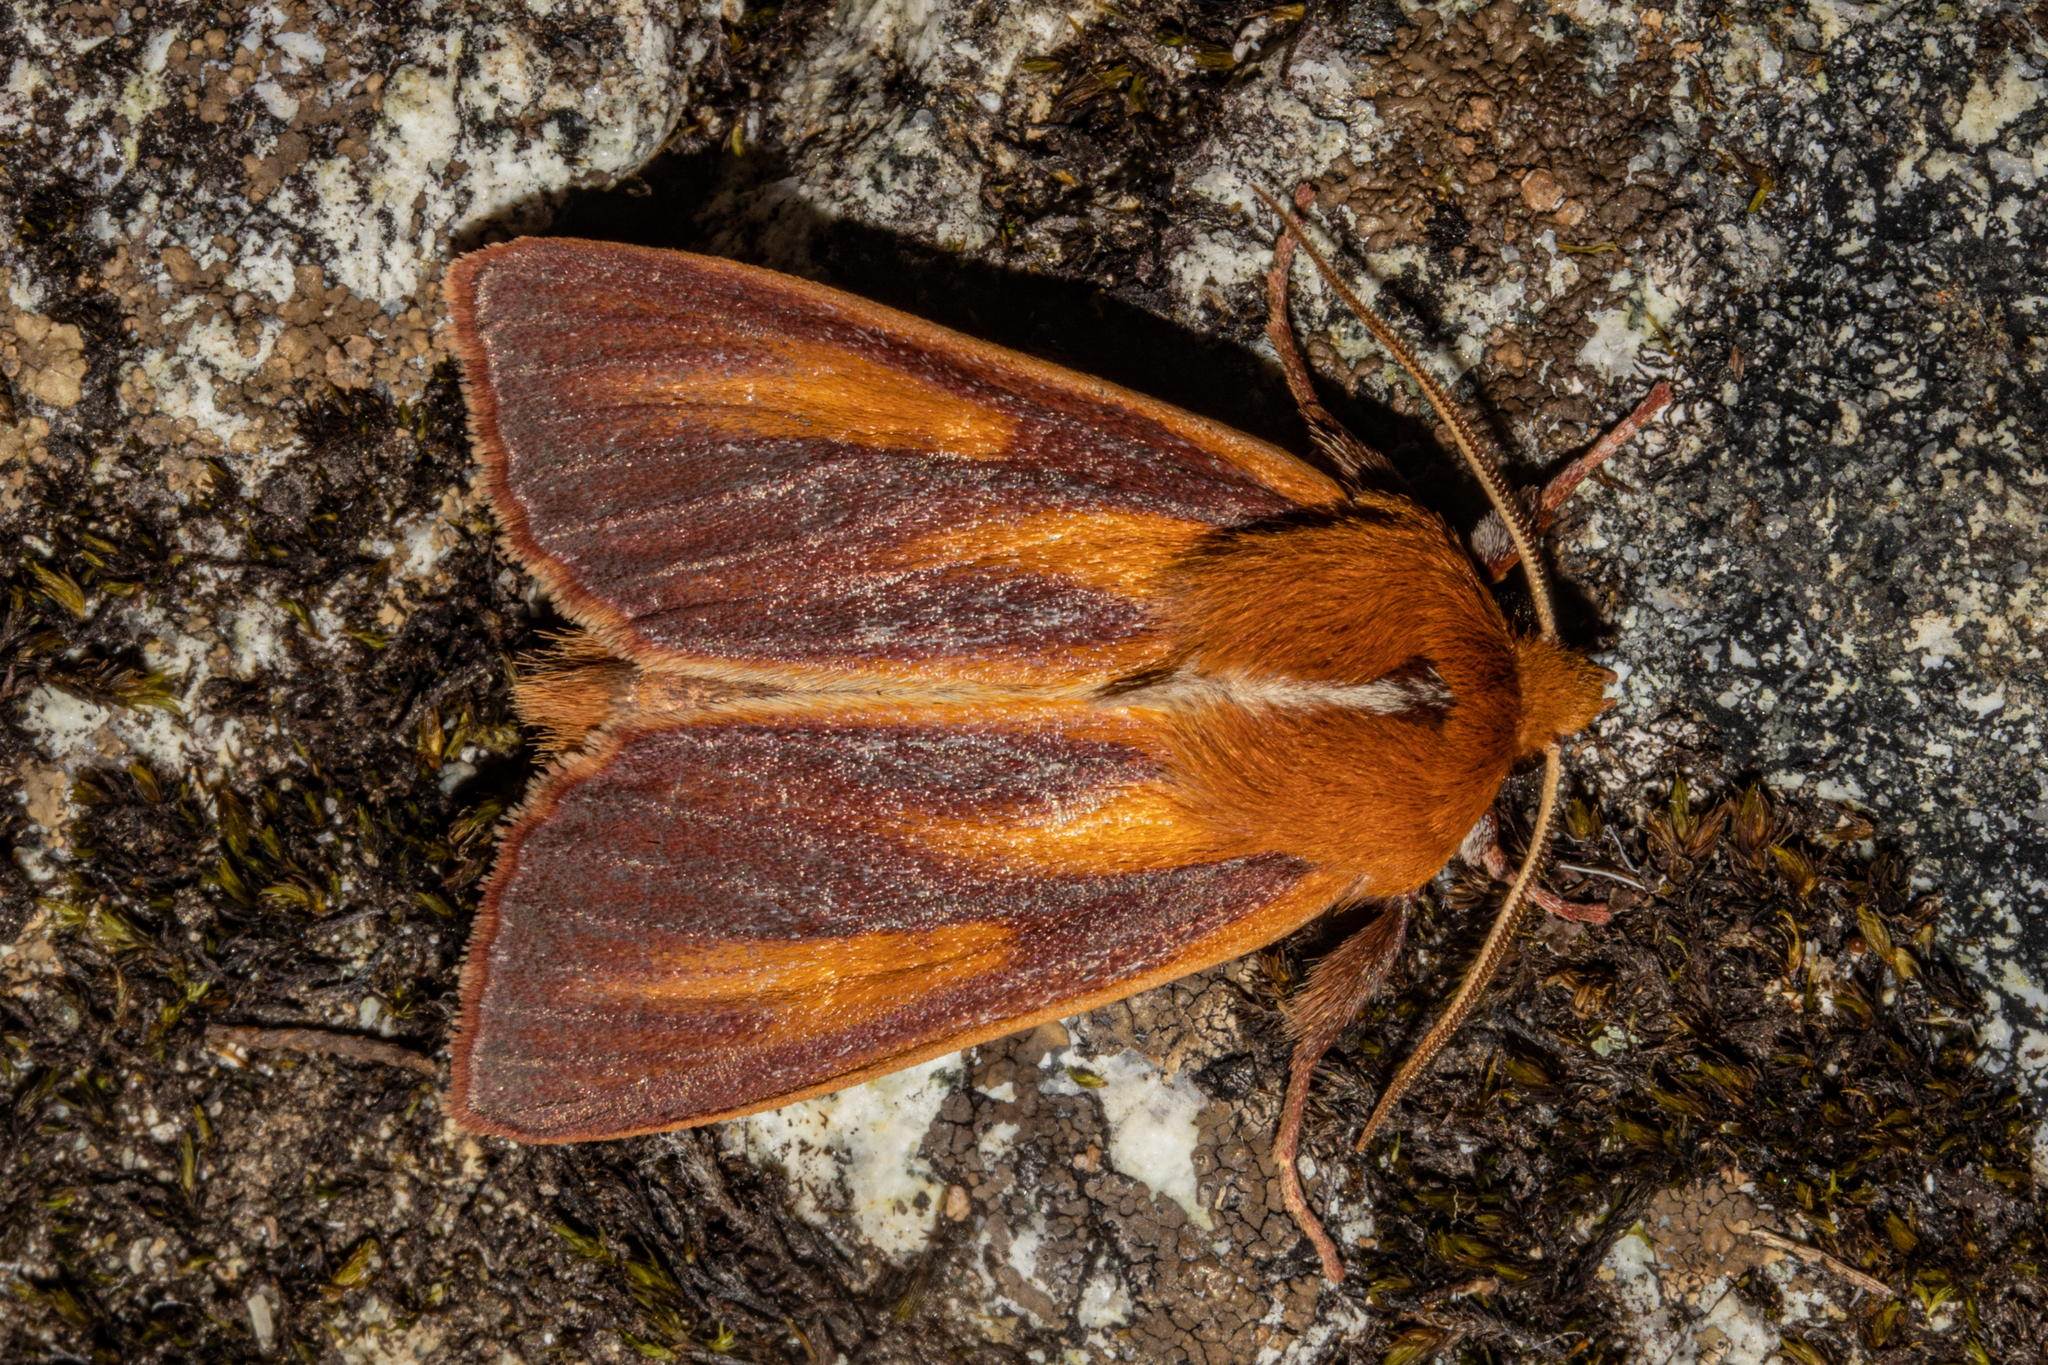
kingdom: Animalia
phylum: Arthropoda
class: Insecta
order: Lepidoptera
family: Noctuidae
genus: Ichneutica
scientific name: Ichneutica
